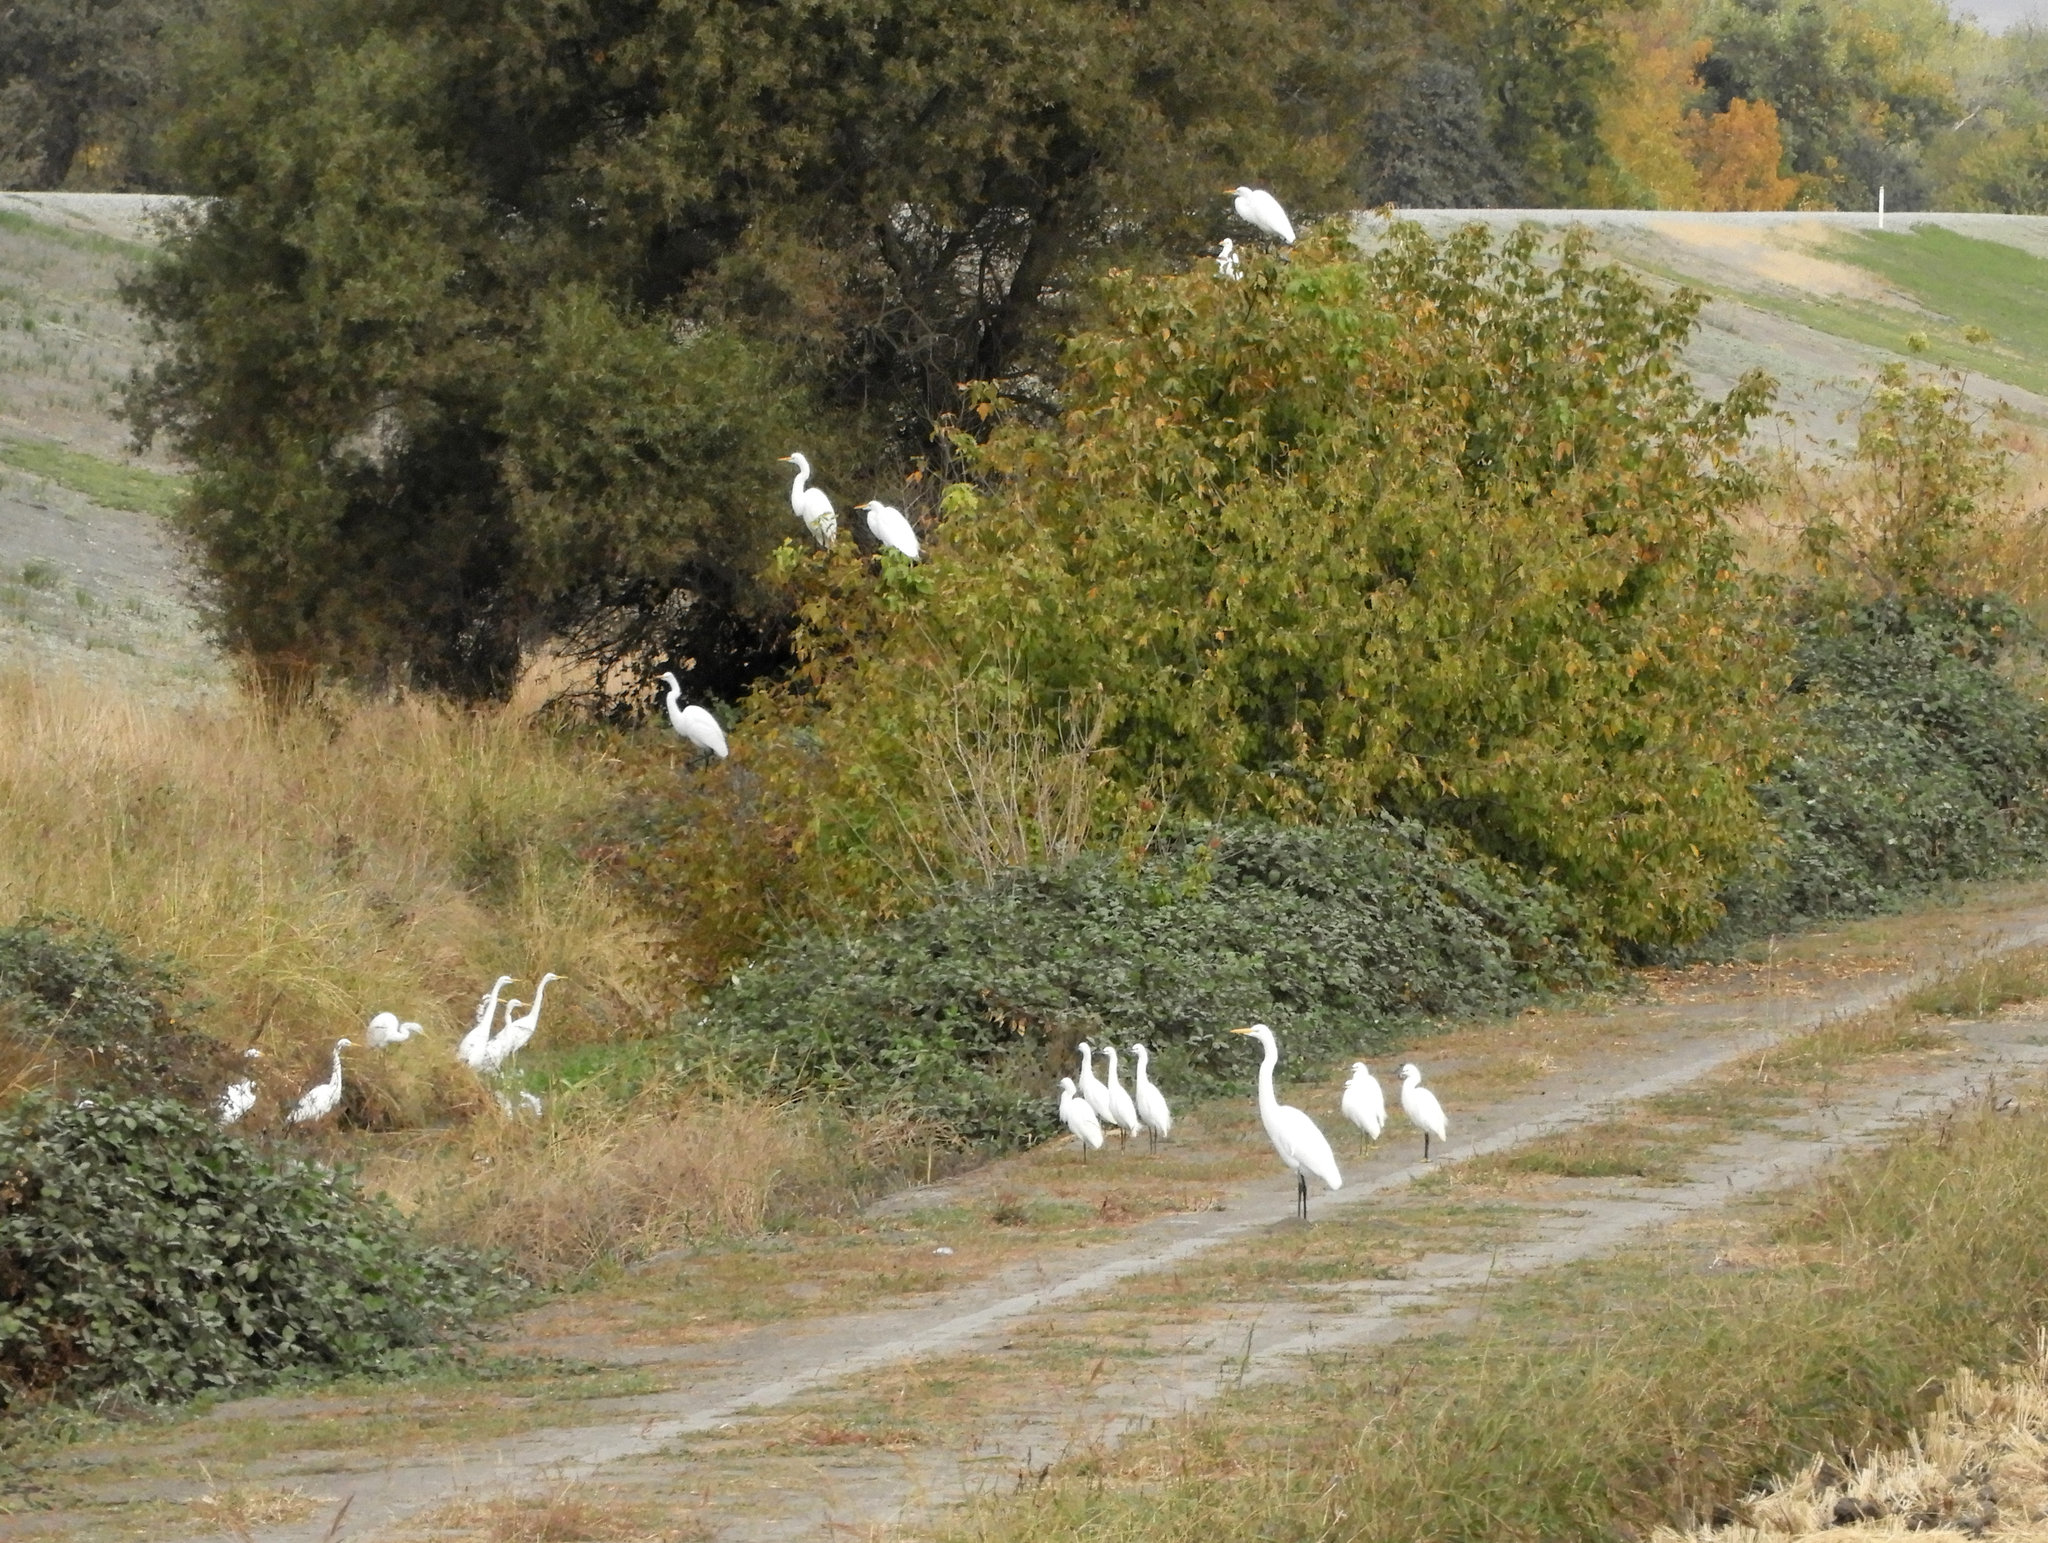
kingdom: Animalia
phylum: Chordata
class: Aves
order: Pelecaniformes
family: Ardeidae
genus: Ardea
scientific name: Ardea alba
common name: Great egret
